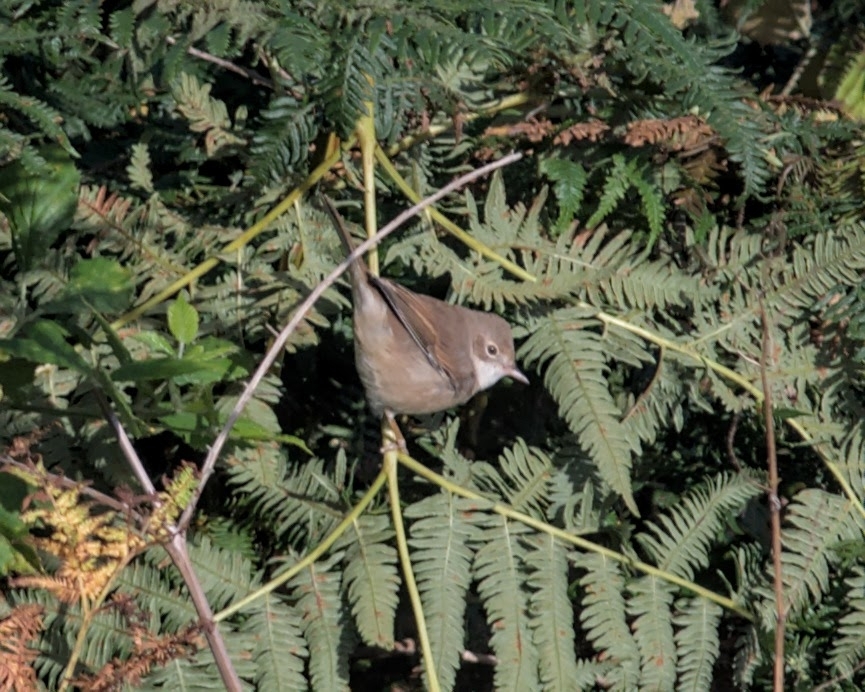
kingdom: Animalia
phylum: Chordata
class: Aves
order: Passeriformes
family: Sylviidae
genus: Sylvia
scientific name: Sylvia communis
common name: Common whitethroat
